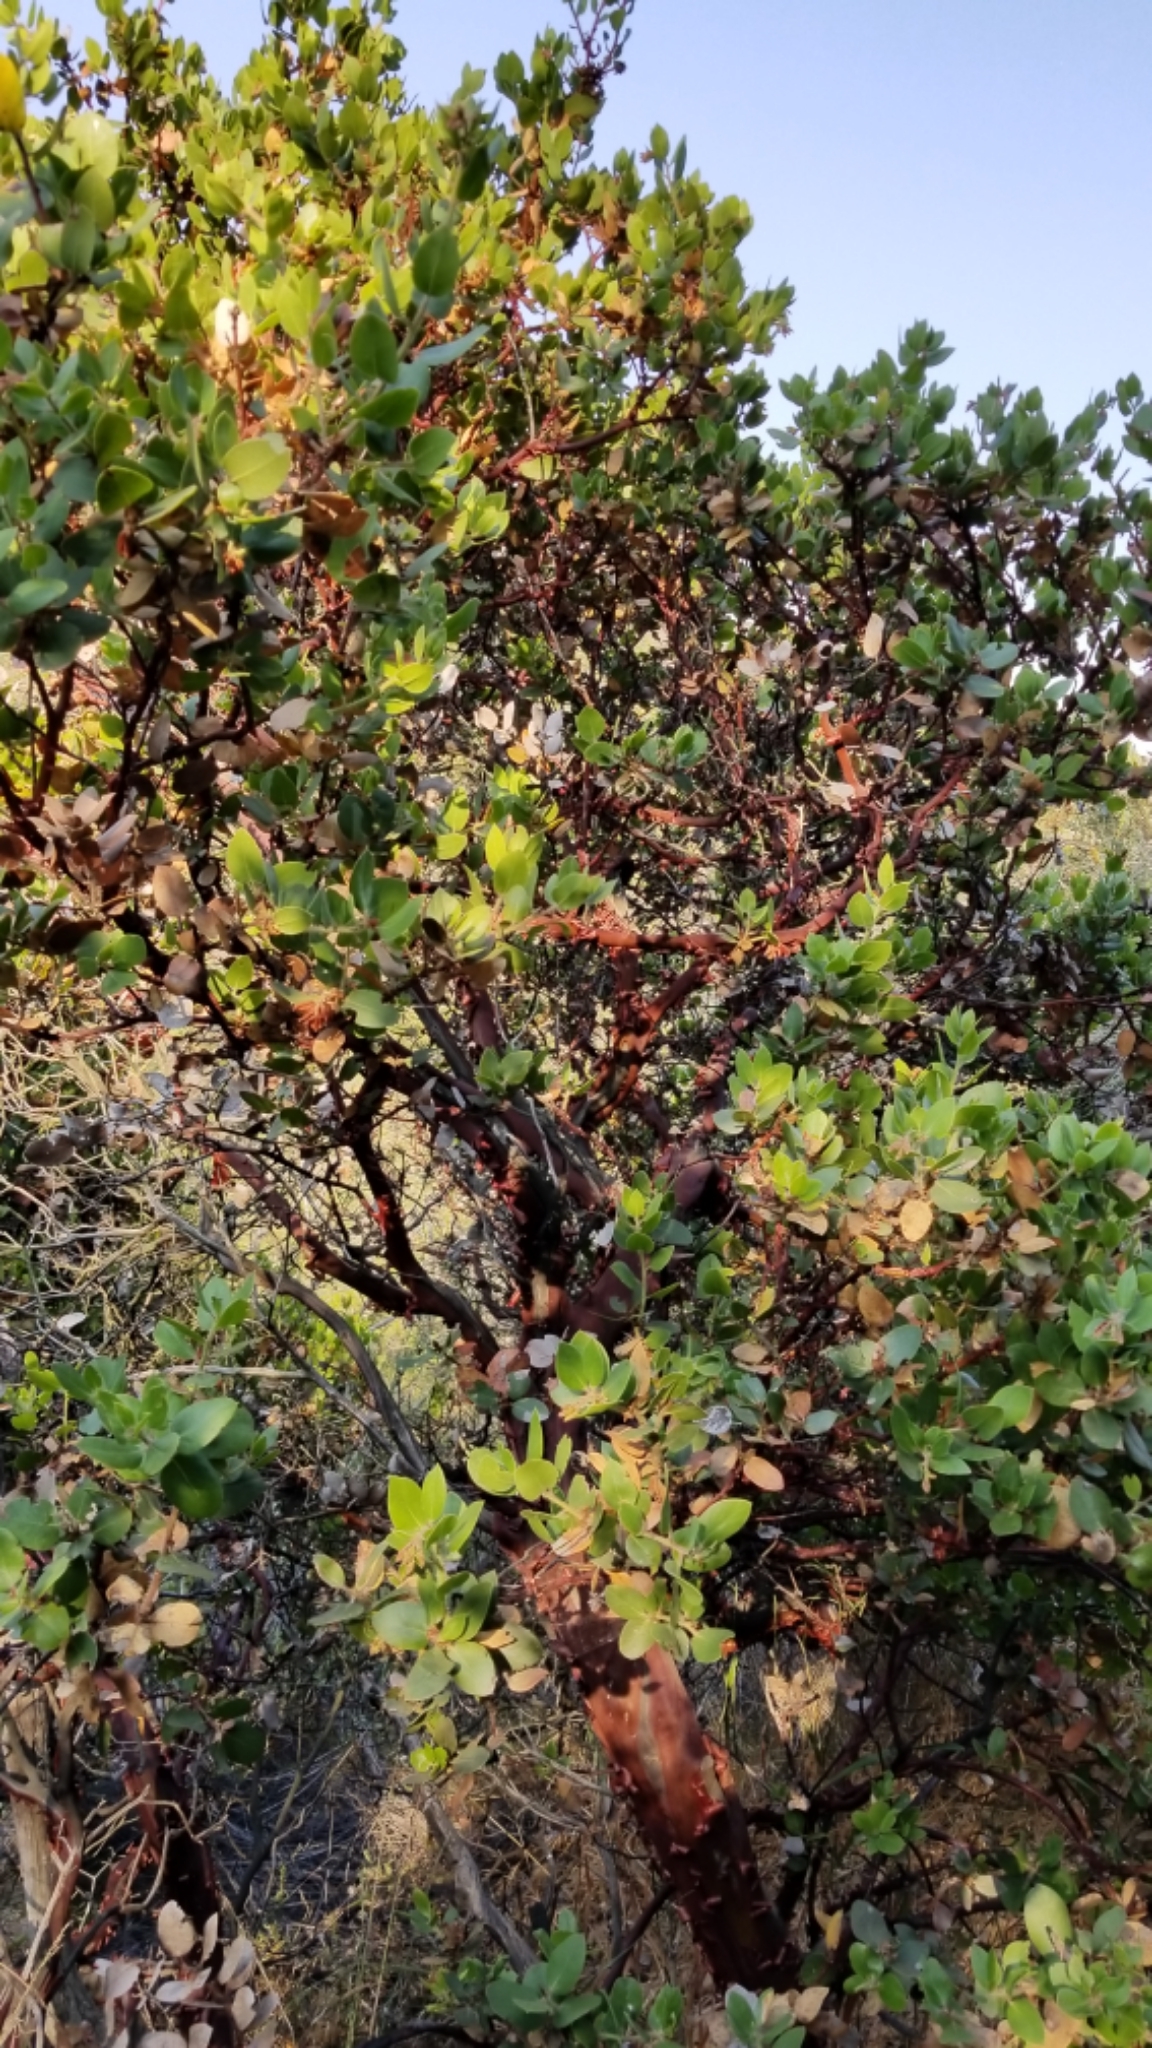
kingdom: Plantae
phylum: Tracheophyta
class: Magnoliopsida
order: Ericales
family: Ericaceae
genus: Arctostaphylos
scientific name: Arctostaphylos glandulosa
